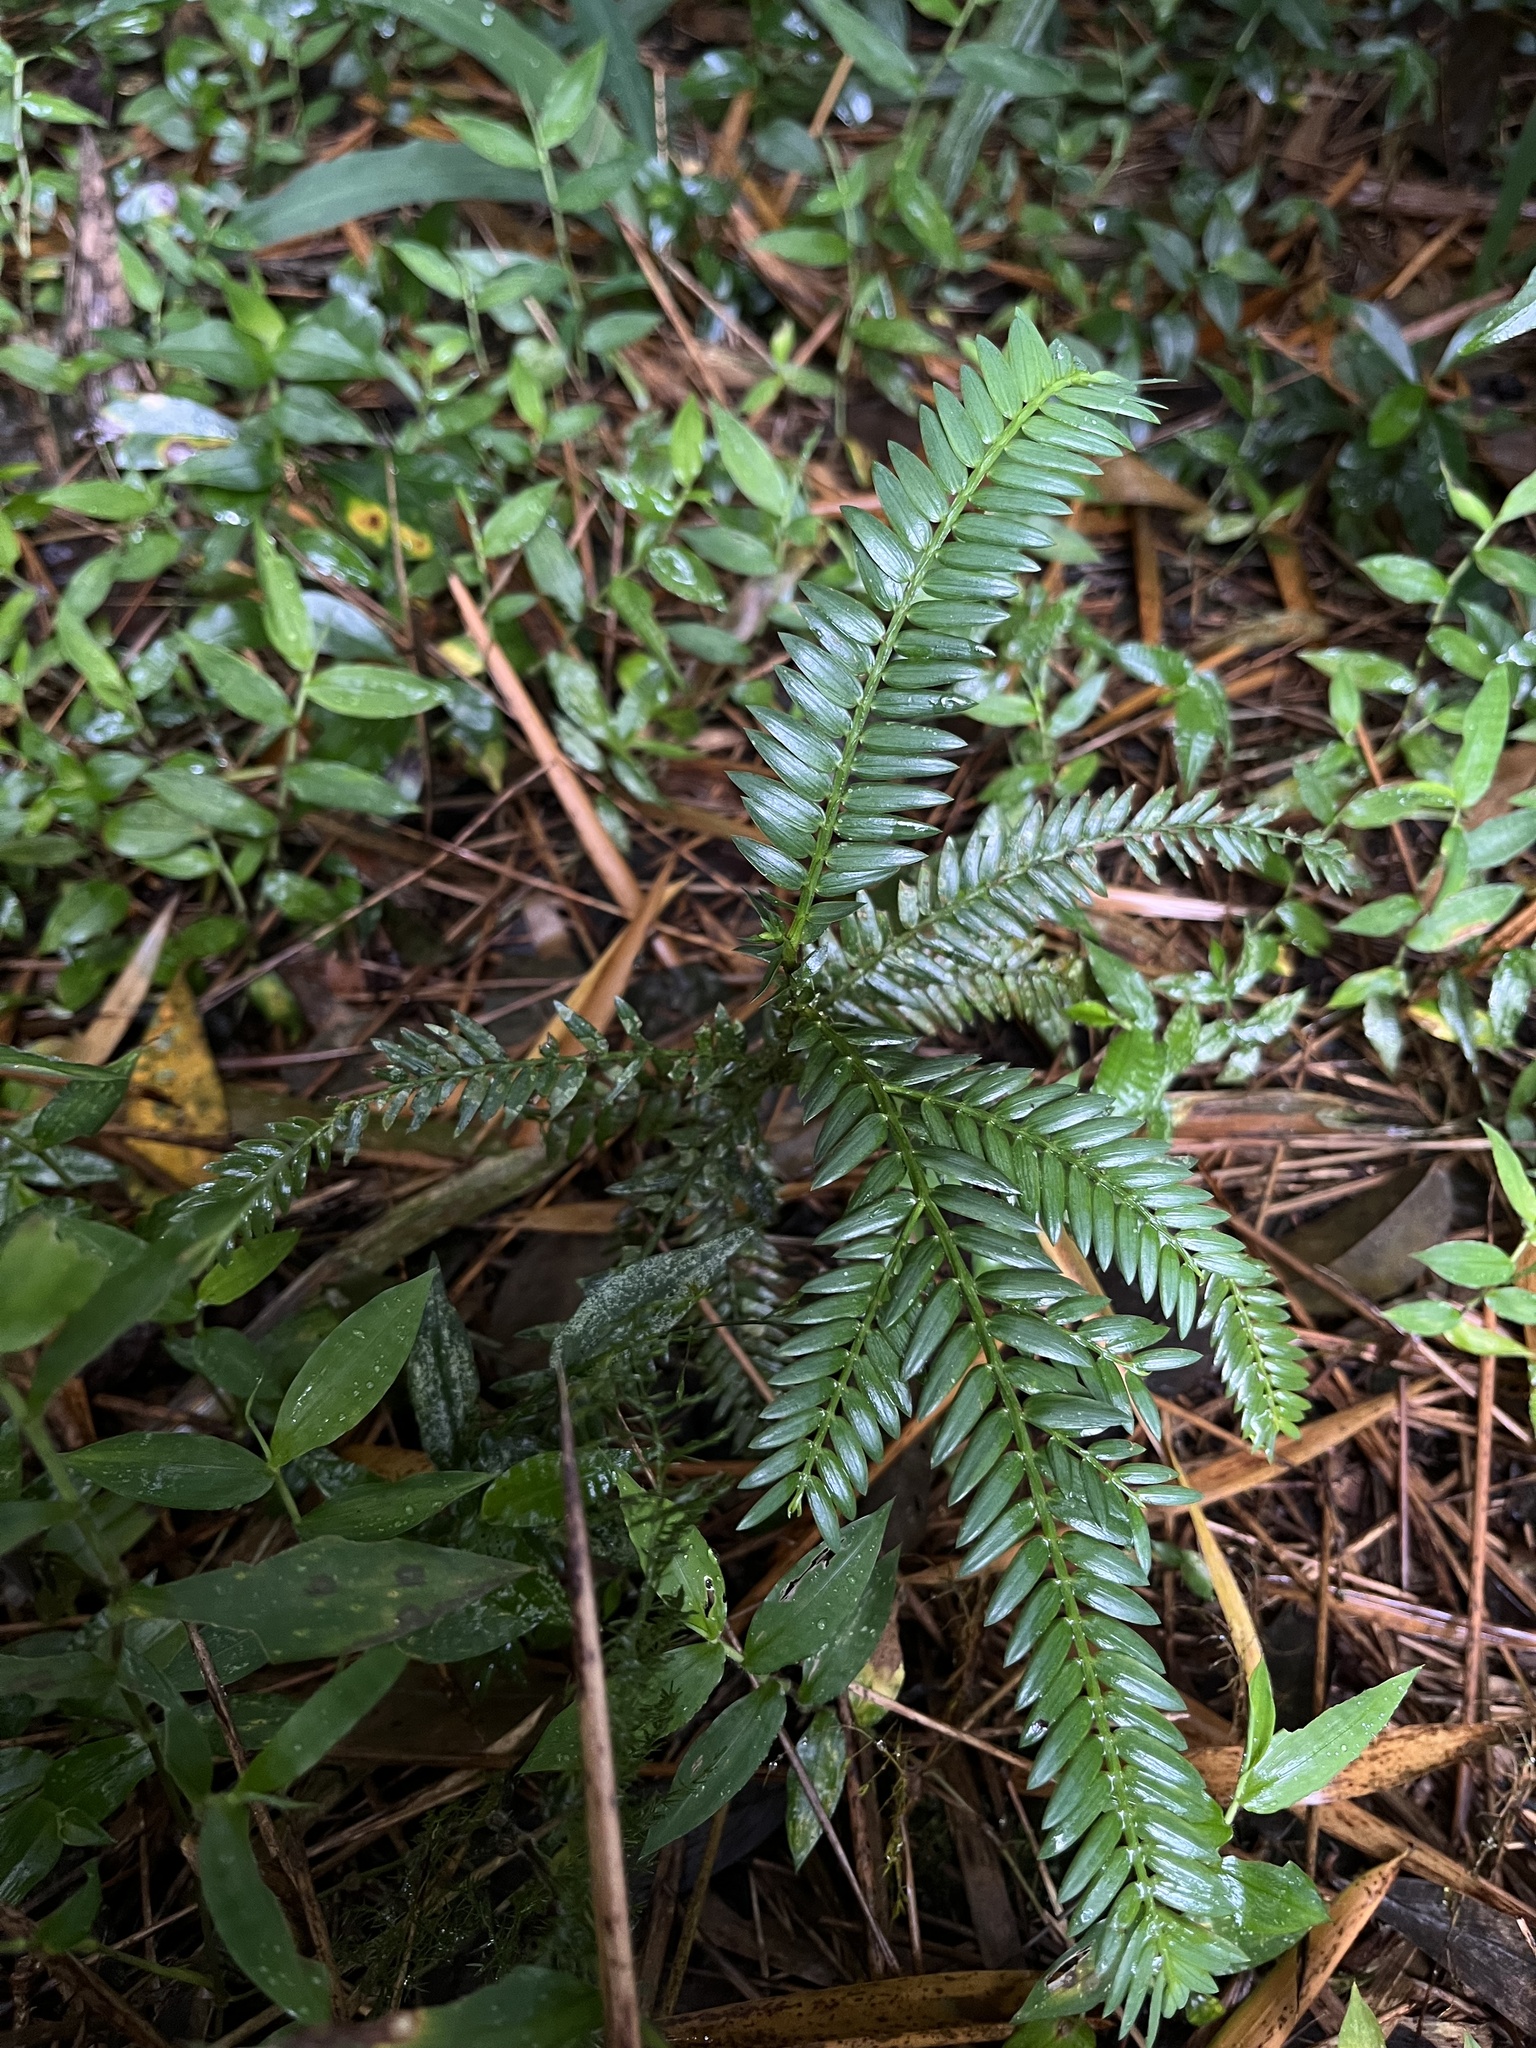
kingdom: Plantae
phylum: Tracheophyta
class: Pinopsida
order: Pinales
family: Podocarpaceae
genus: Retrophyllum
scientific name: Retrophyllum rospigliosii
